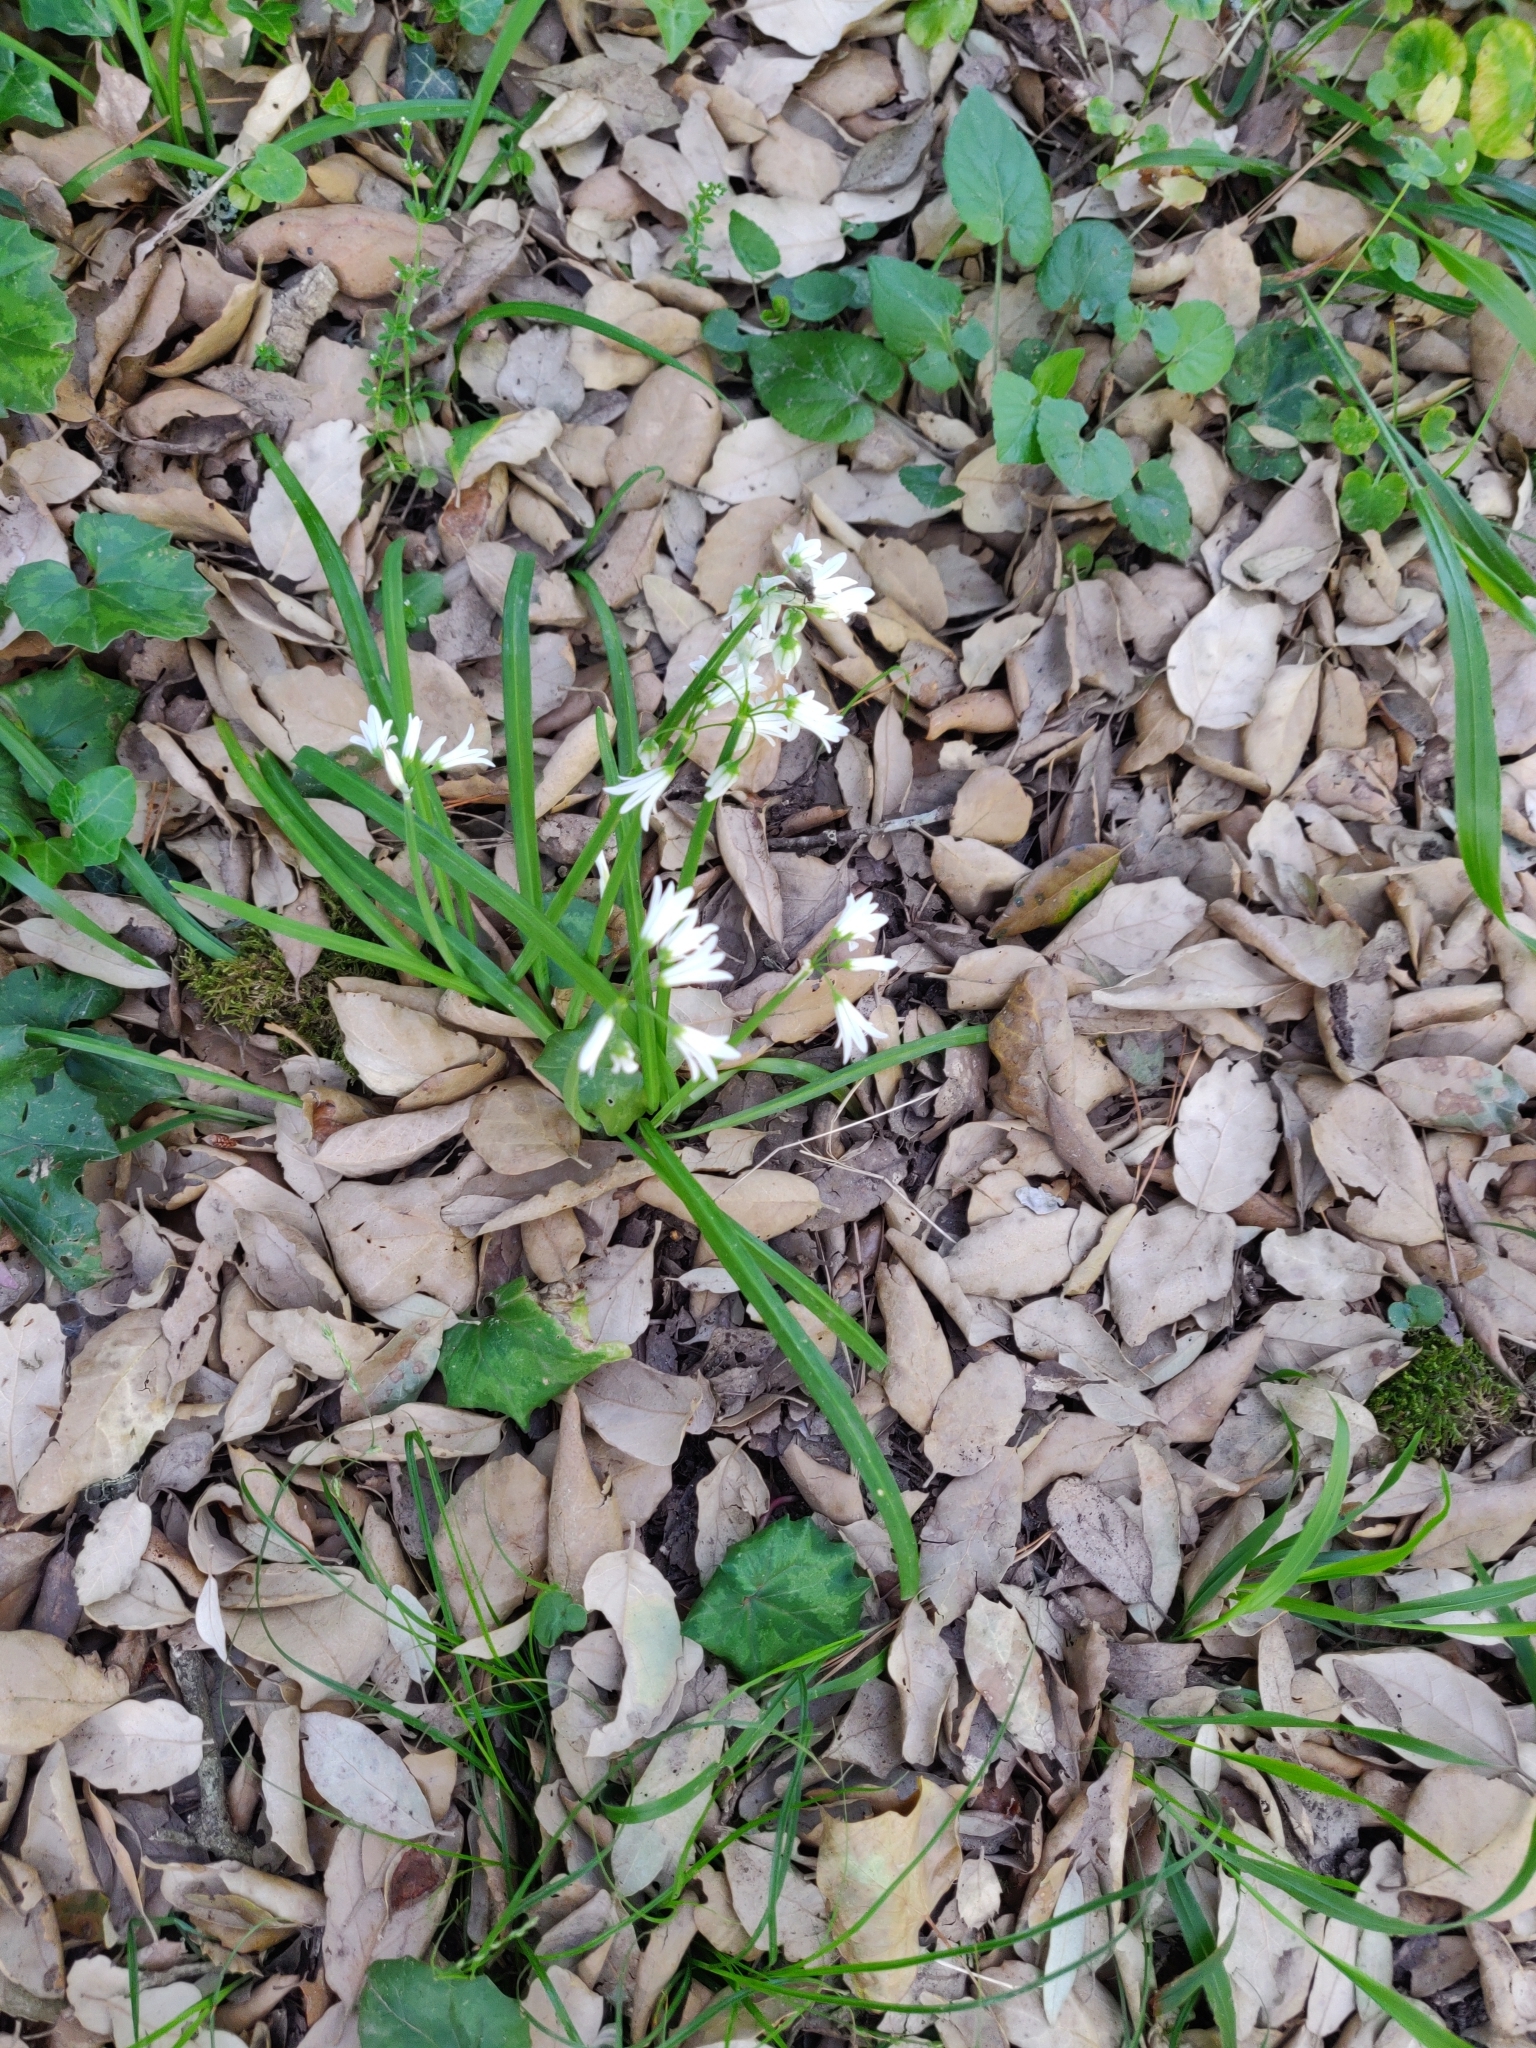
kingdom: Plantae
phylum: Tracheophyta
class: Liliopsida
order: Asparagales
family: Amaryllidaceae
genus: Allium
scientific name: Allium triquetrum
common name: Three-cornered garlic
